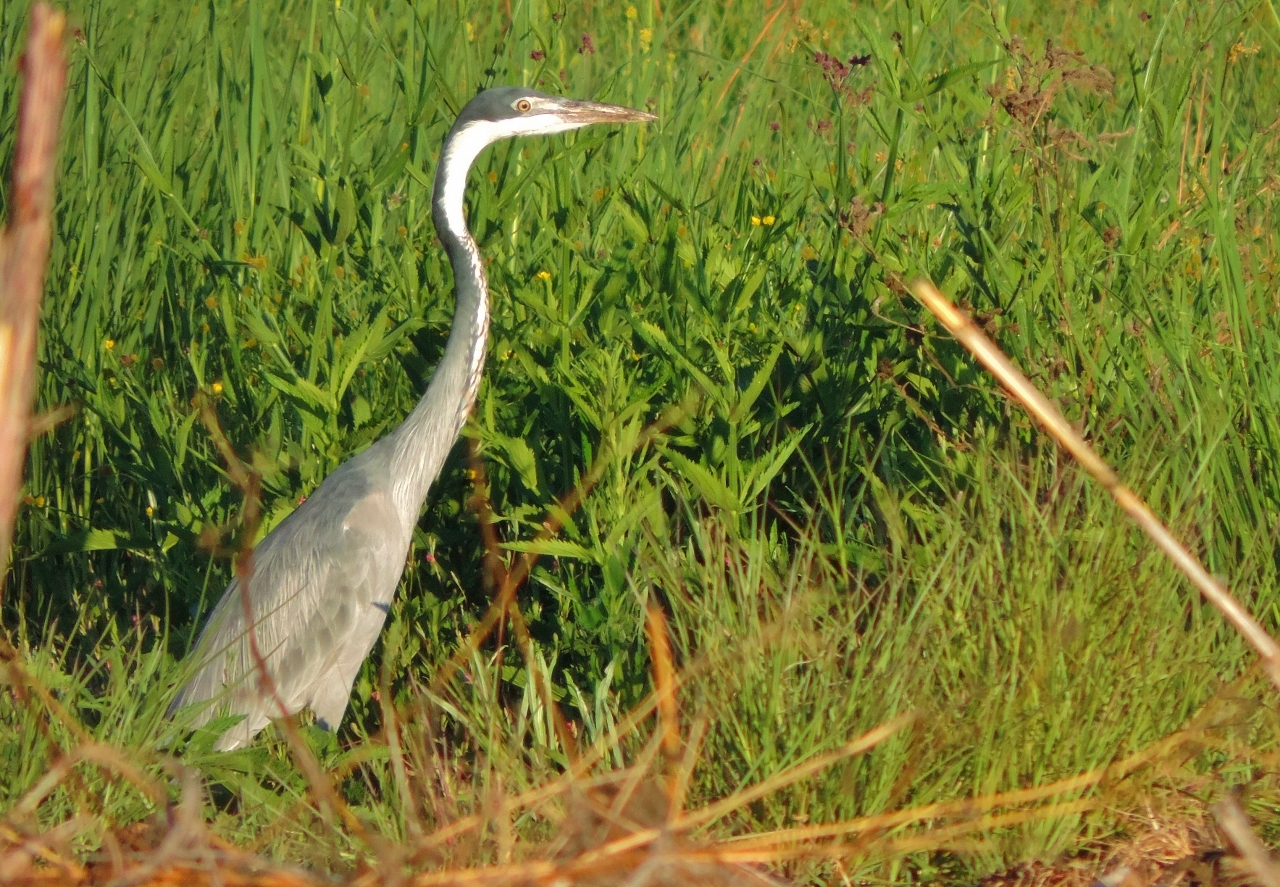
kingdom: Animalia
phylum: Chordata
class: Aves
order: Pelecaniformes
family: Ardeidae
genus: Ardea
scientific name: Ardea melanocephala
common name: Black-headed heron
